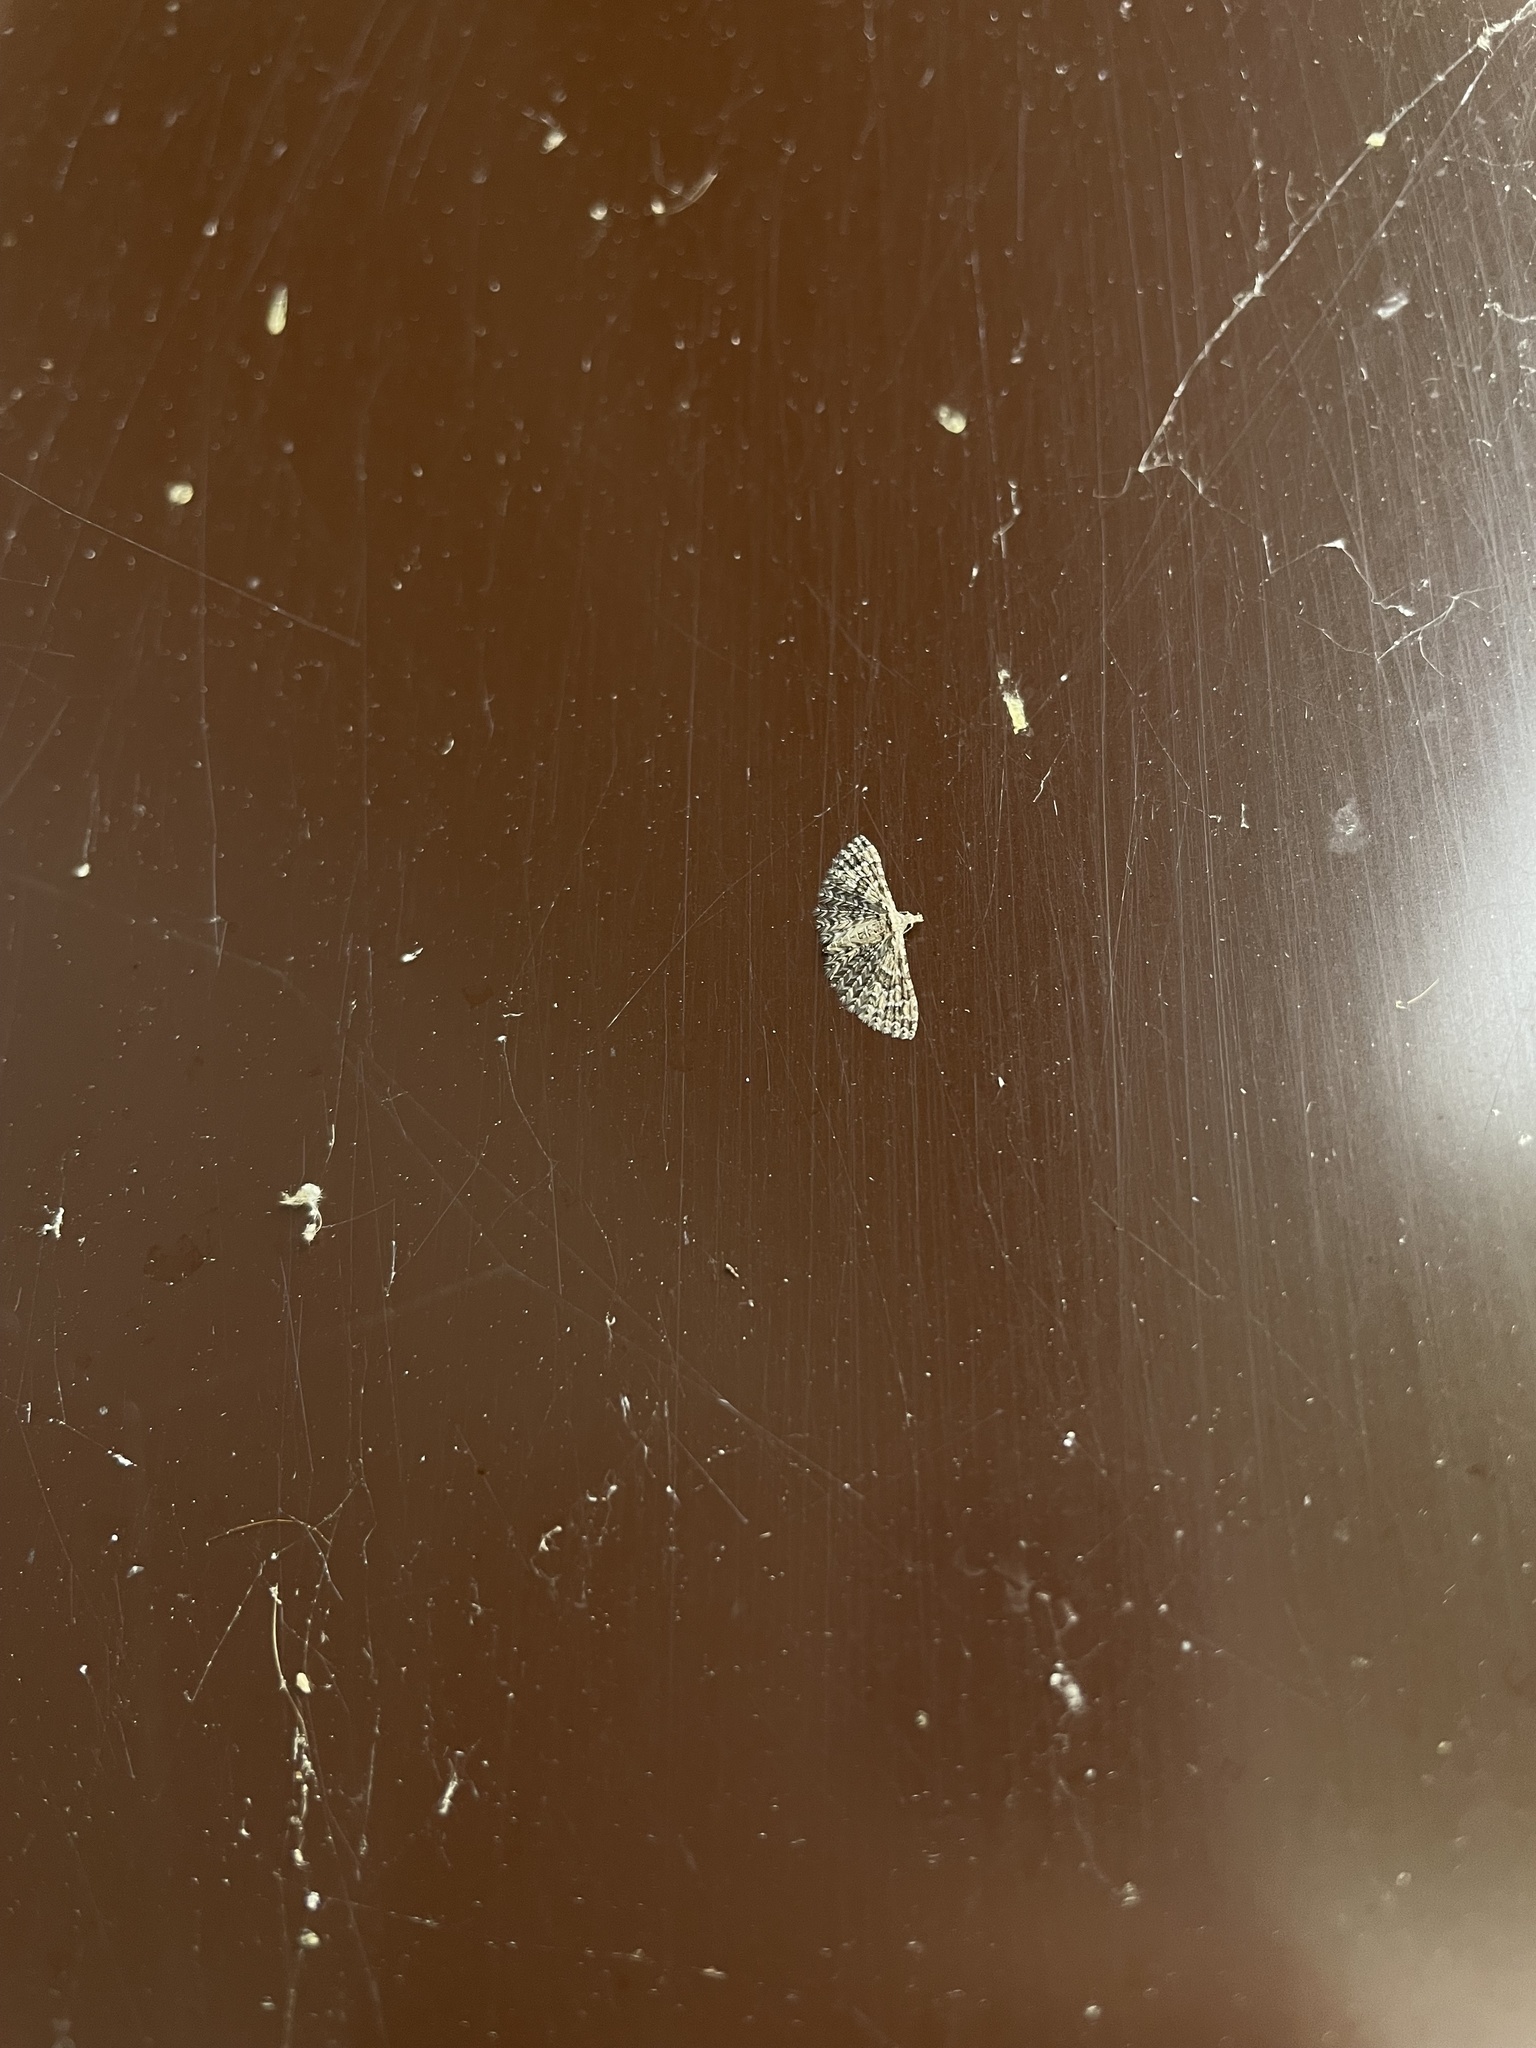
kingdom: Animalia
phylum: Arthropoda
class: Insecta
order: Lepidoptera
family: Alucitidae
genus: Alucita
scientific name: Alucita
